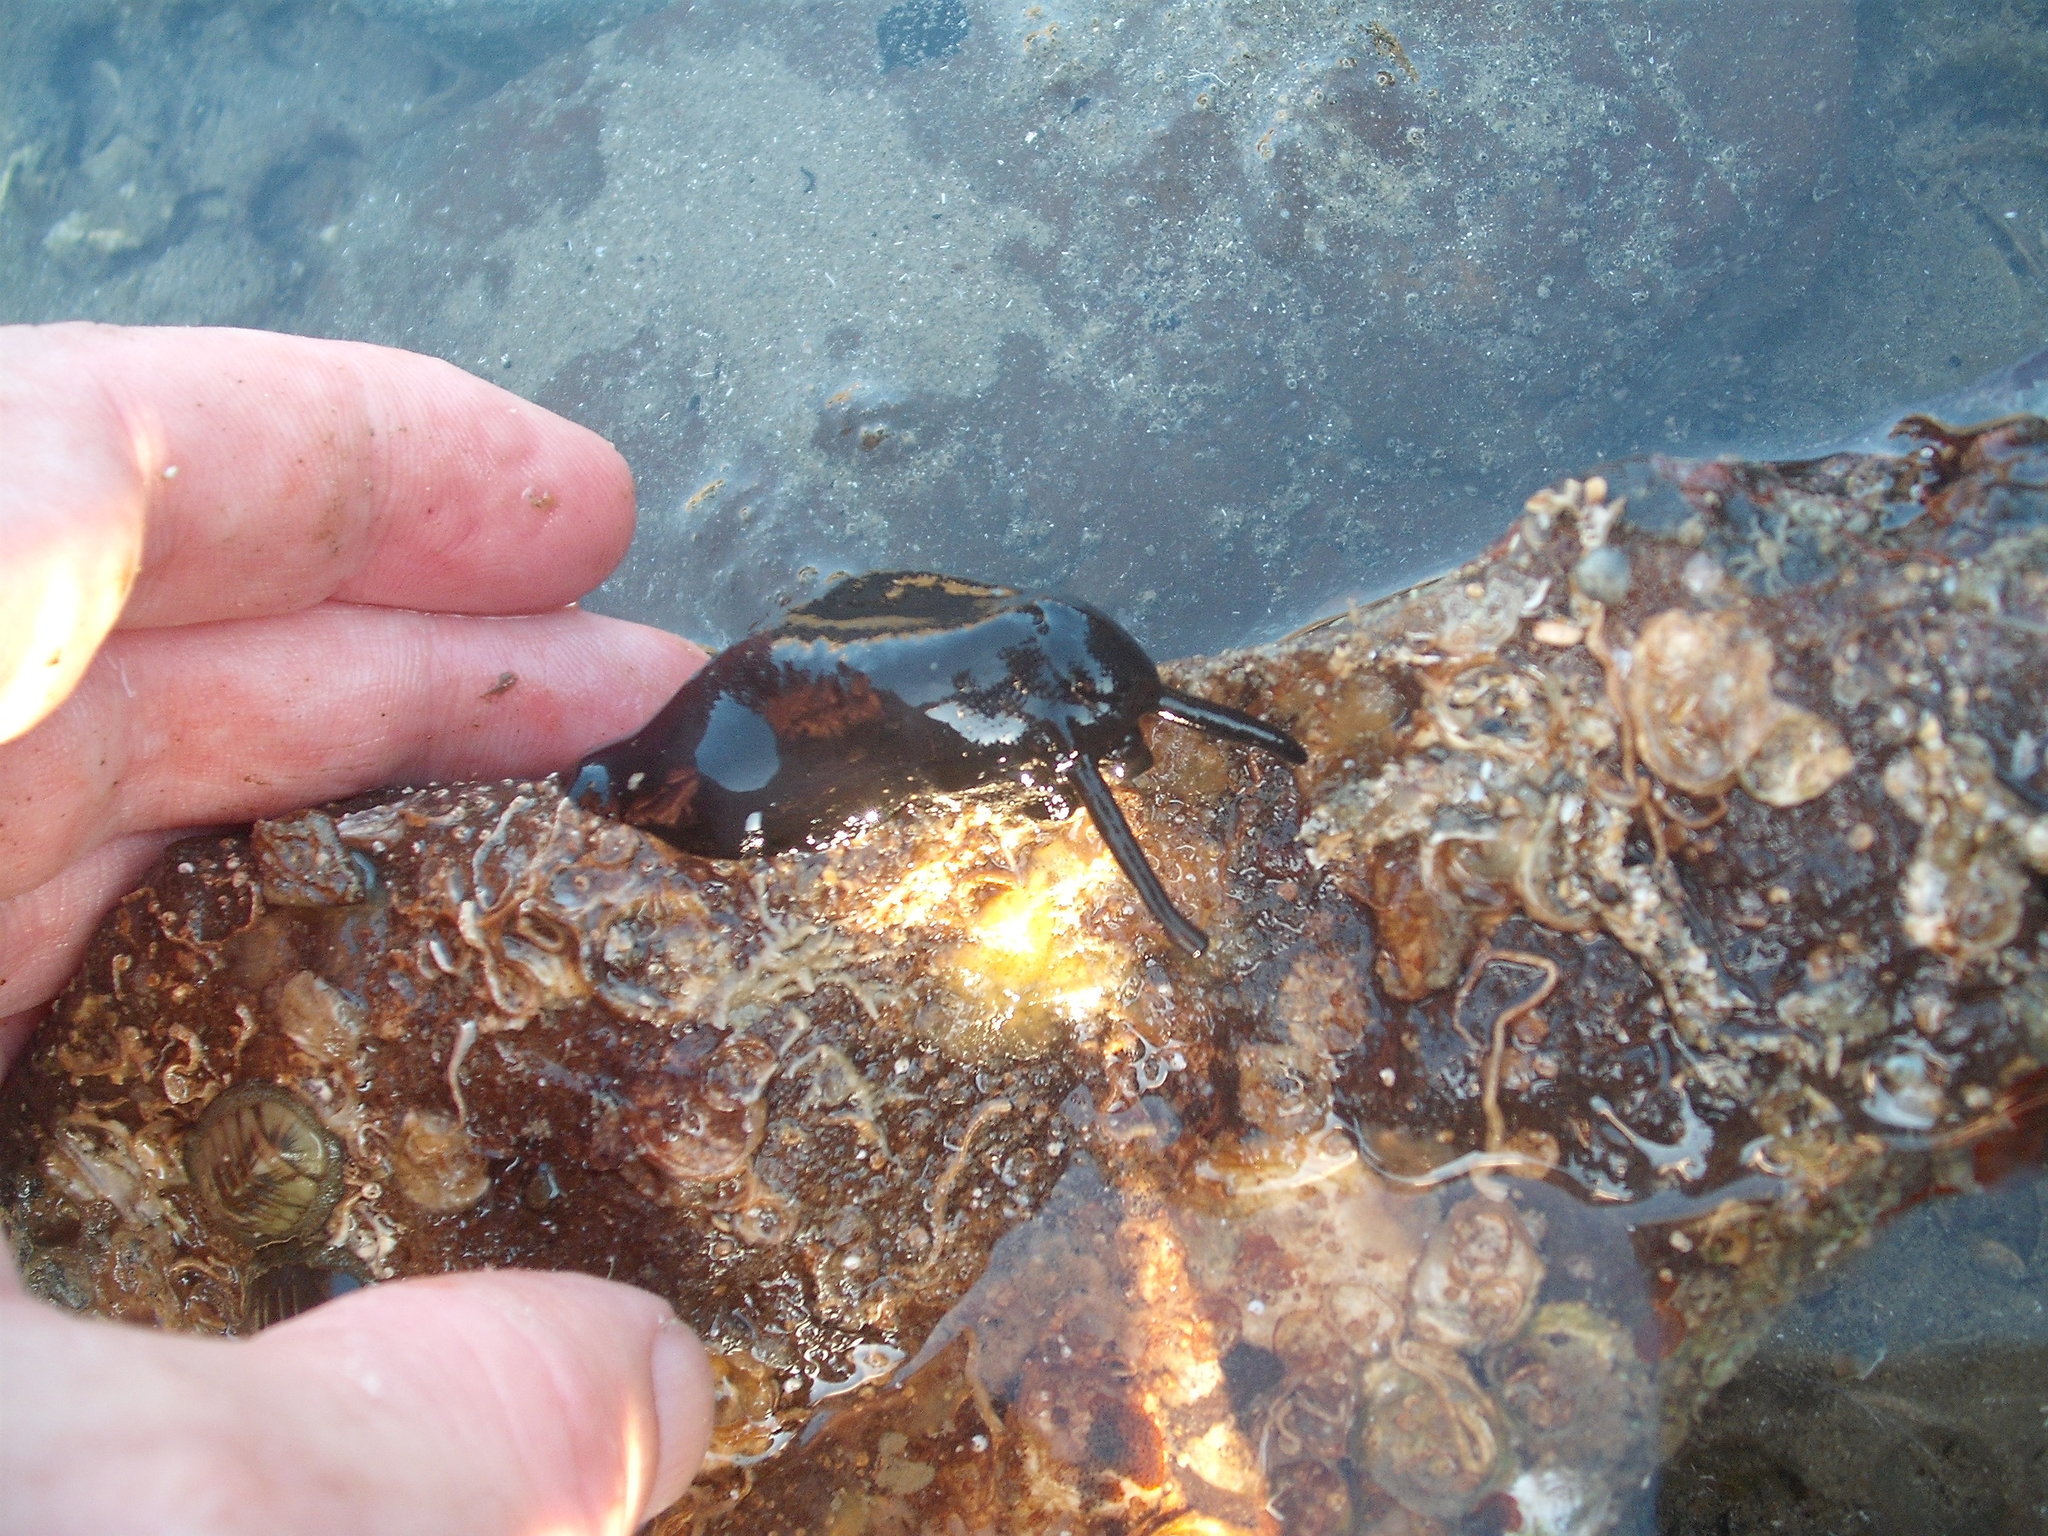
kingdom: Animalia
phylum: Mollusca
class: Gastropoda
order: Lepetellida
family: Fissurellidae
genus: Scutus
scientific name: Scutus breviculus
